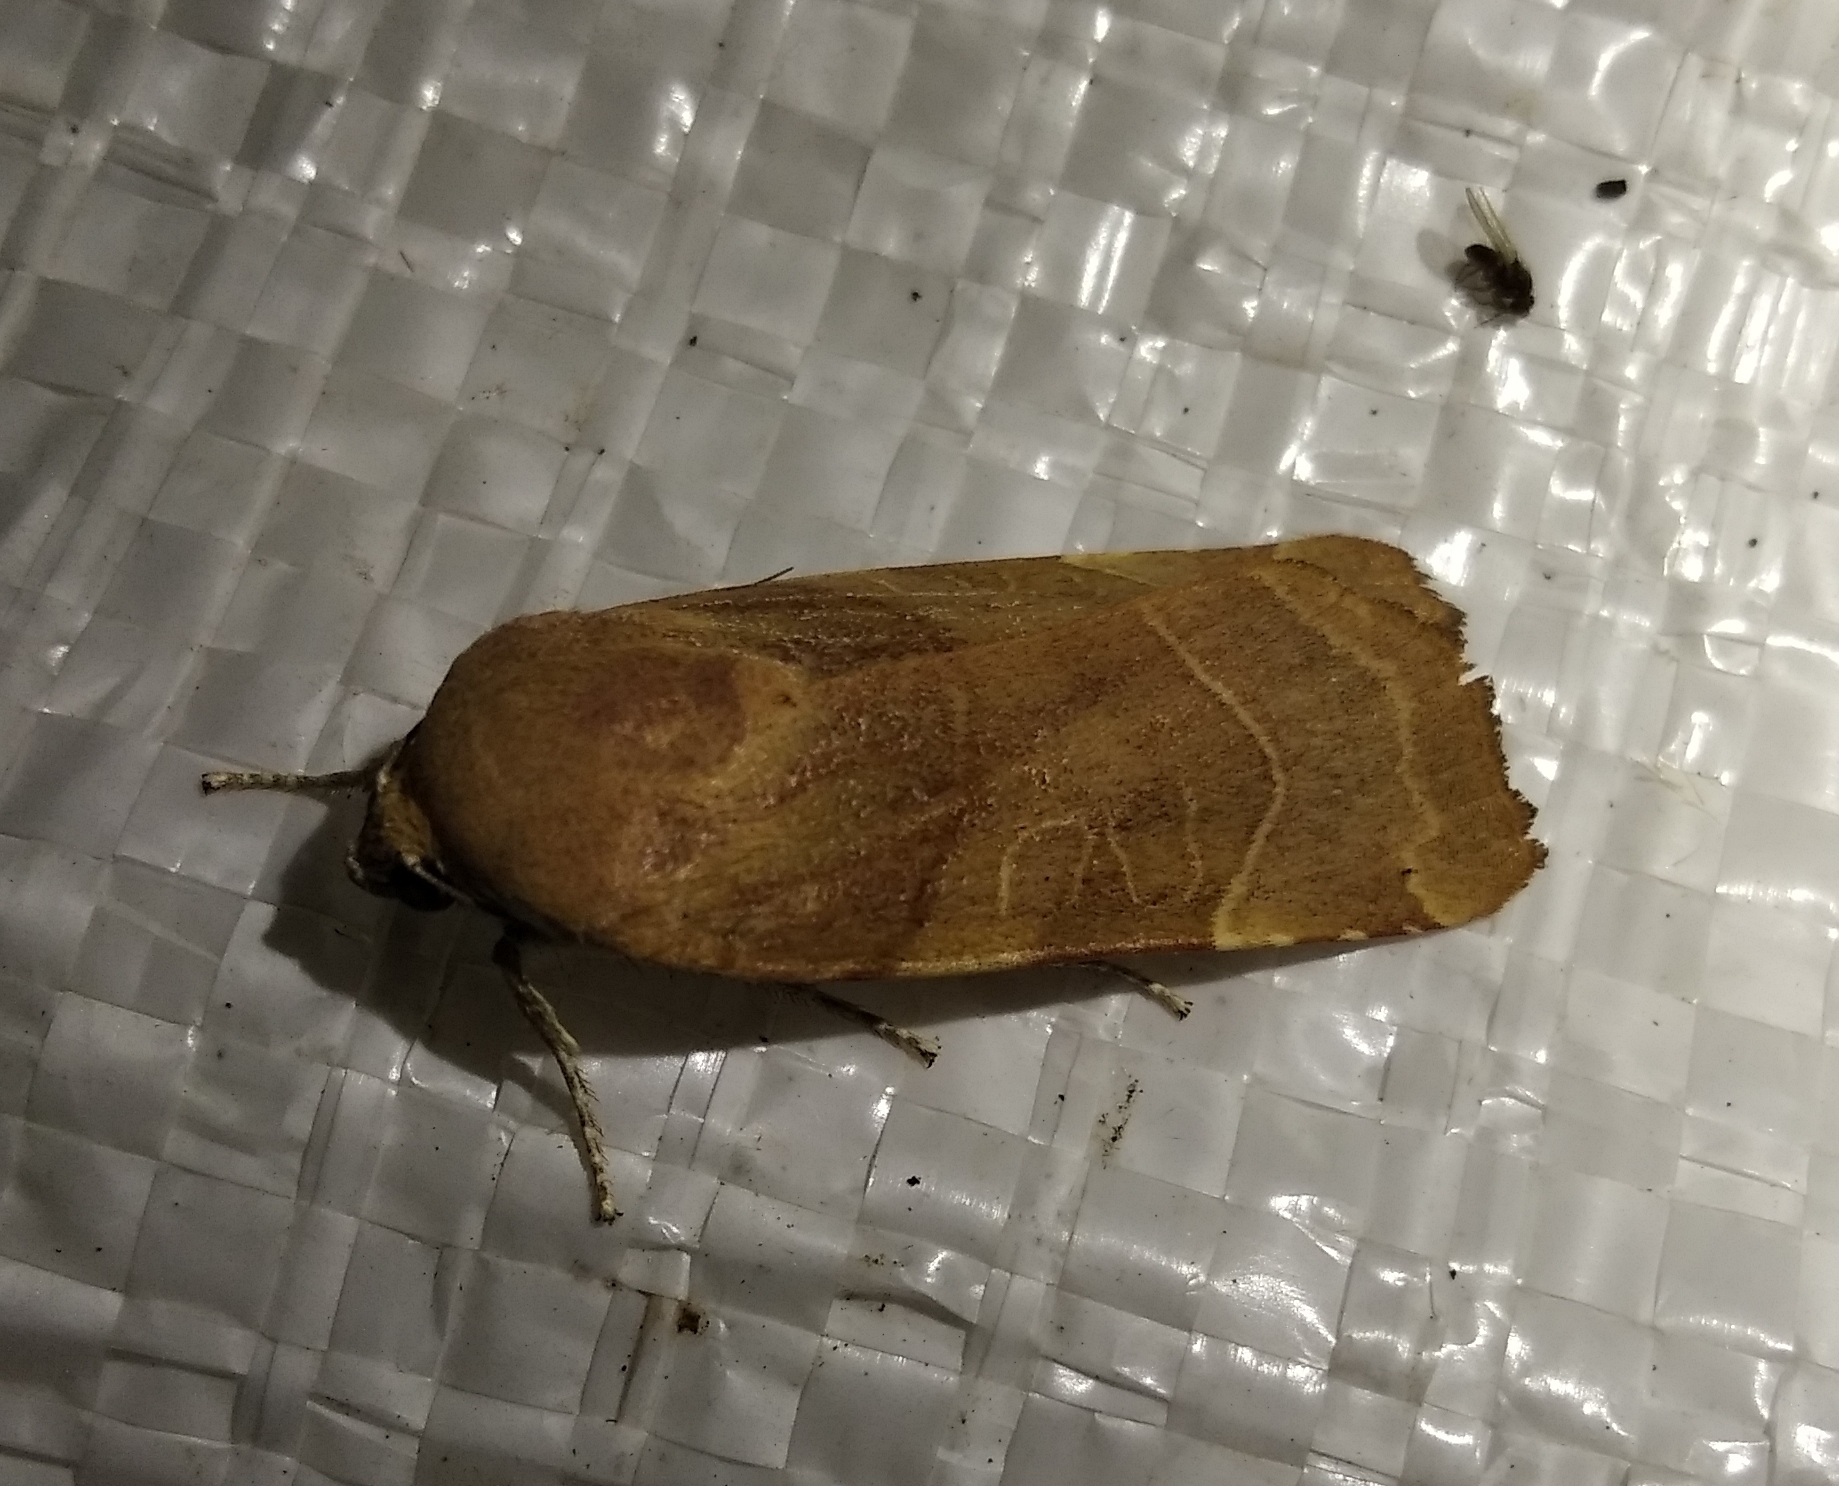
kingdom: Animalia
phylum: Arthropoda
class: Insecta
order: Lepidoptera
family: Noctuidae
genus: Noctua
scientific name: Noctua fimbriata
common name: Broad-bordered yellow underwing
